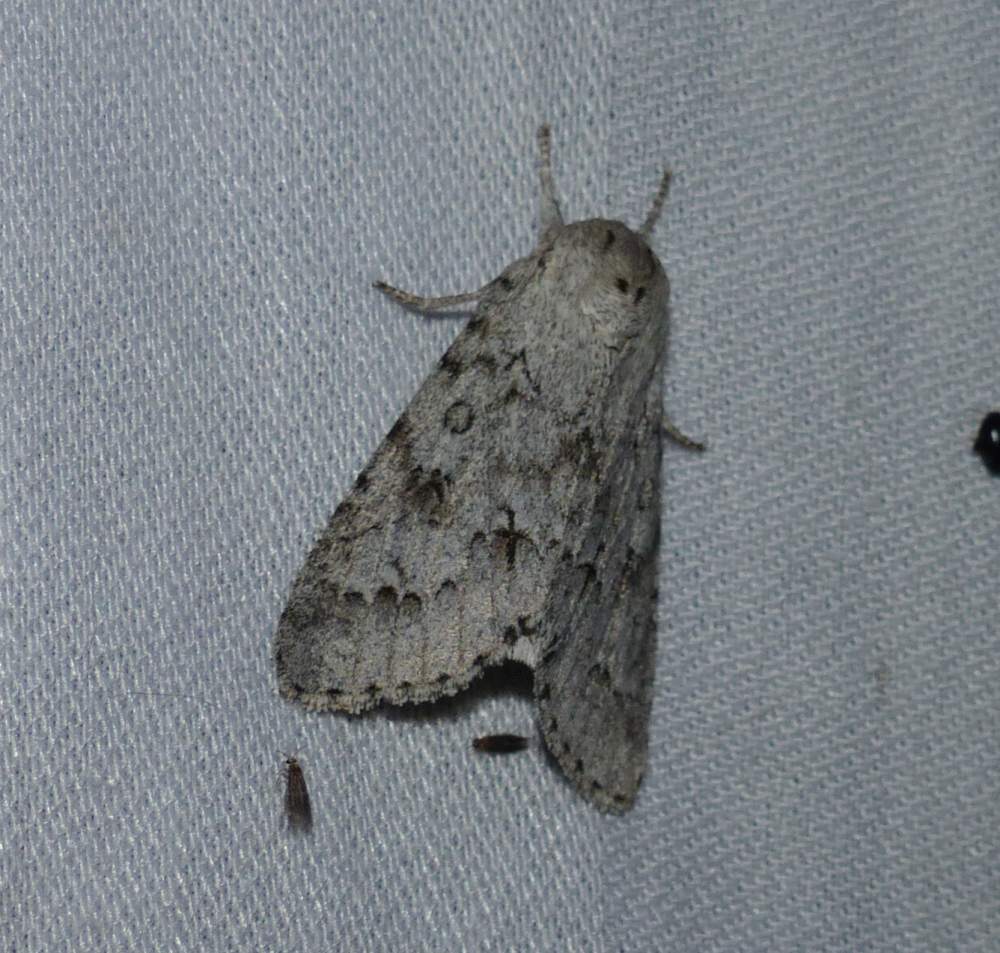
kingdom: Animalia
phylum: Arthropoda
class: Insecta
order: Lepidoptera
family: Noctuidae
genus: Acronicta
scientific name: Acronicta insita
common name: Large gray dagger
